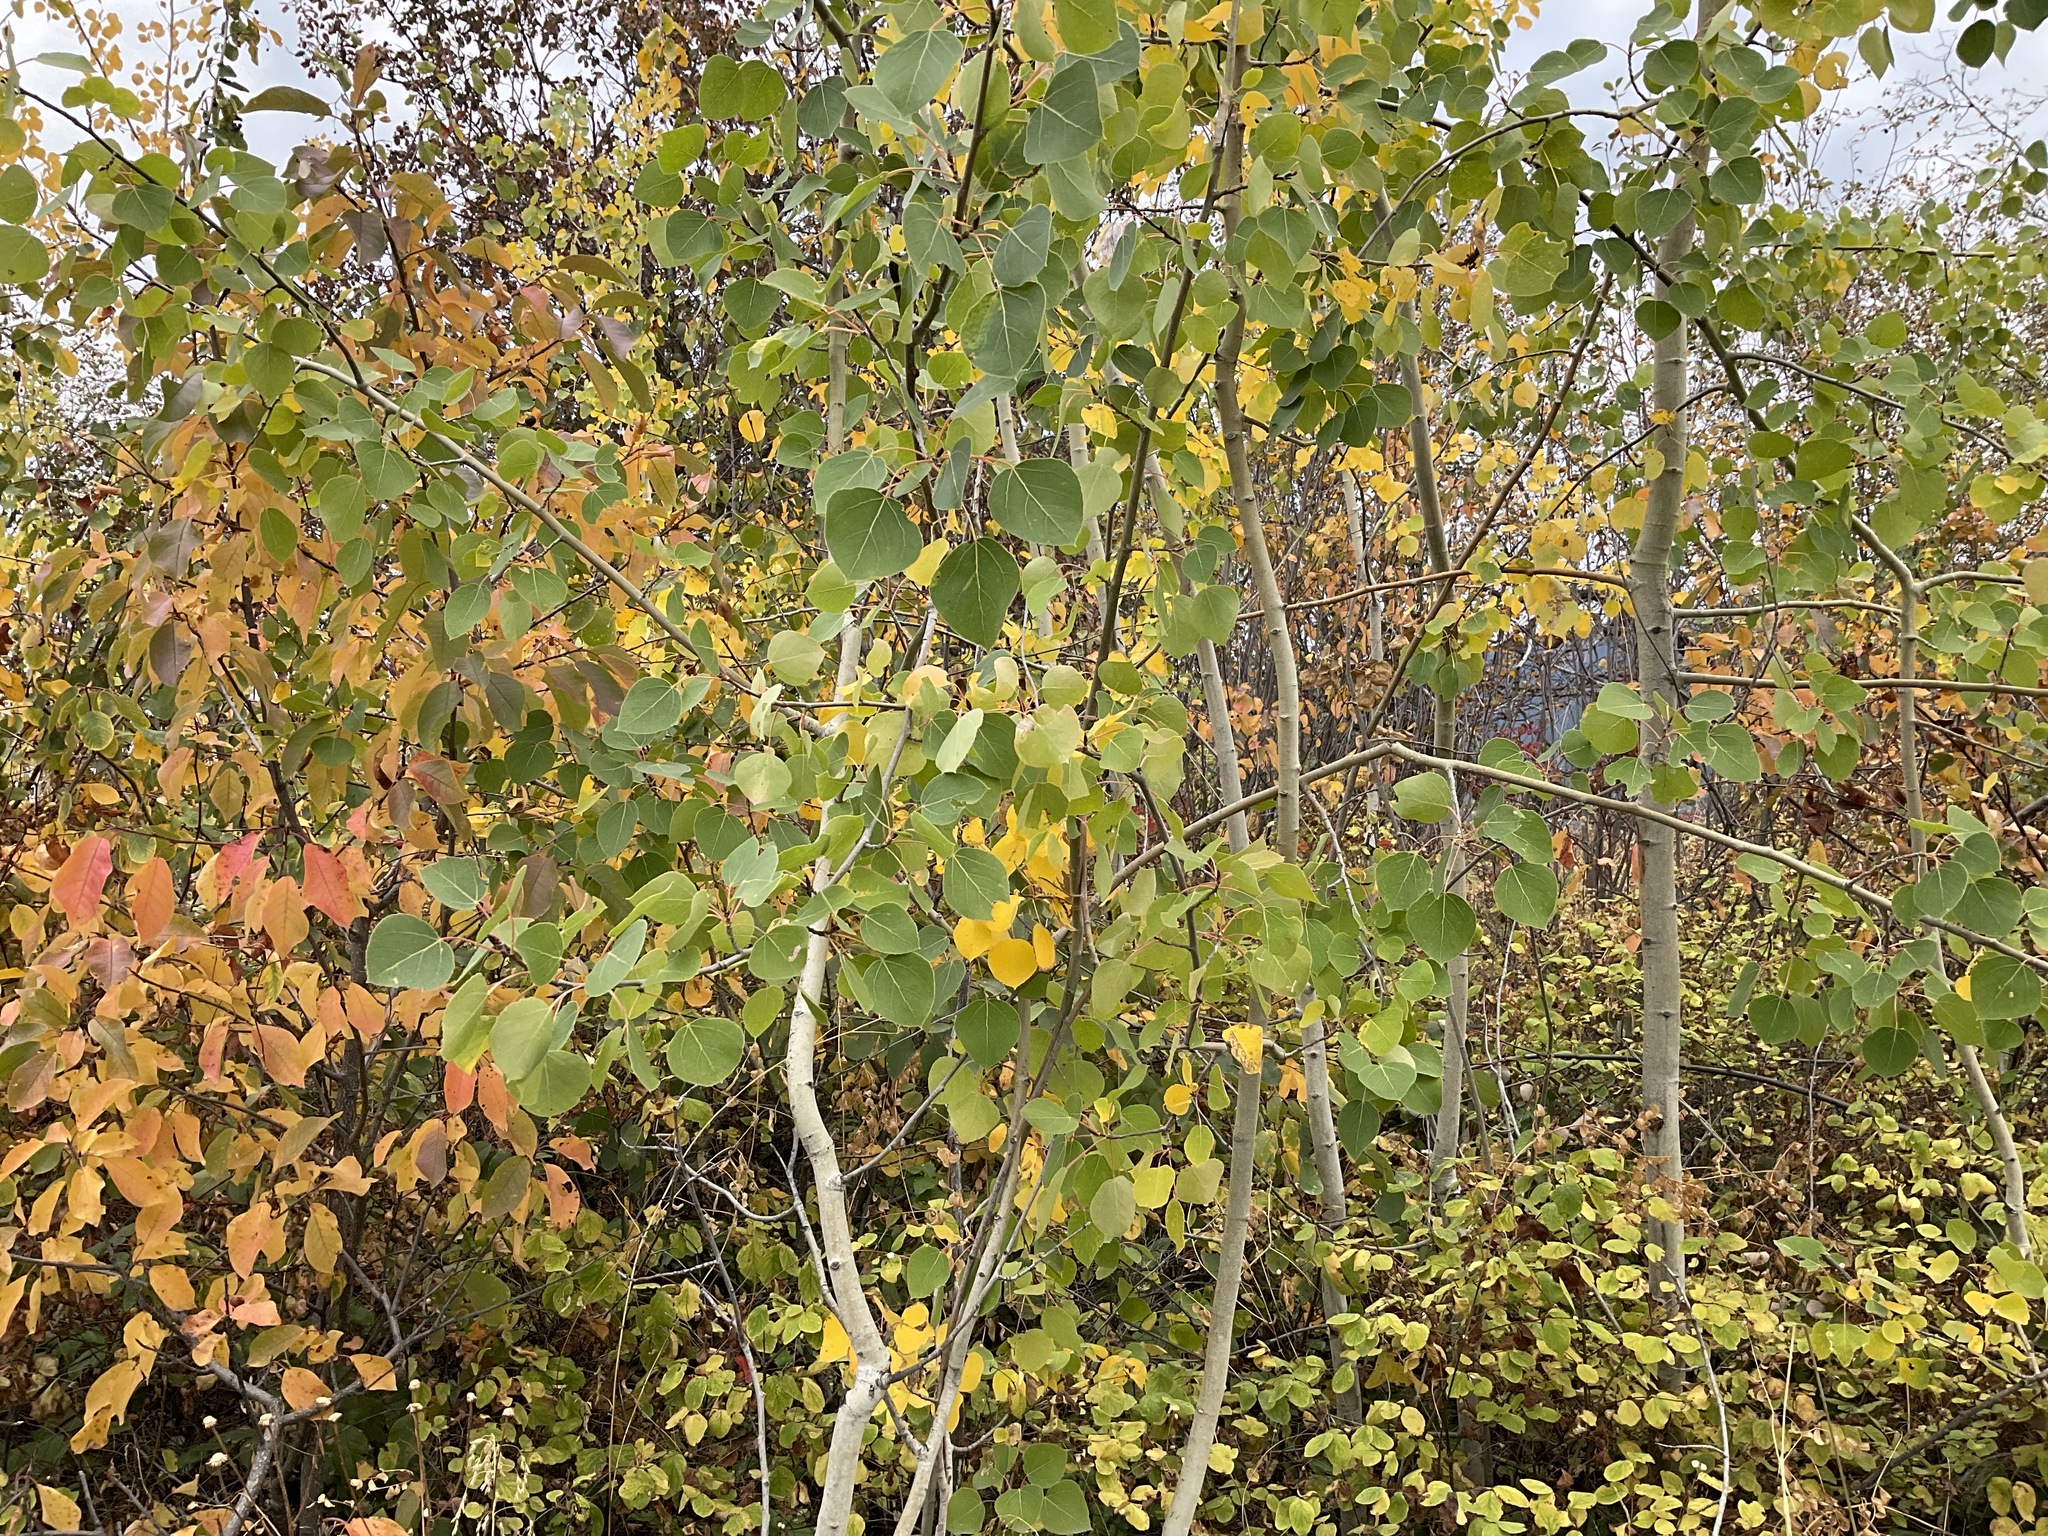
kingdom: Plantae
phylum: Tracheophyta
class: Magnoliopsida
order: Malpighiales
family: Salicaceae
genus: Populus
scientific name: Populus tremuloides
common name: Quaking aspen
